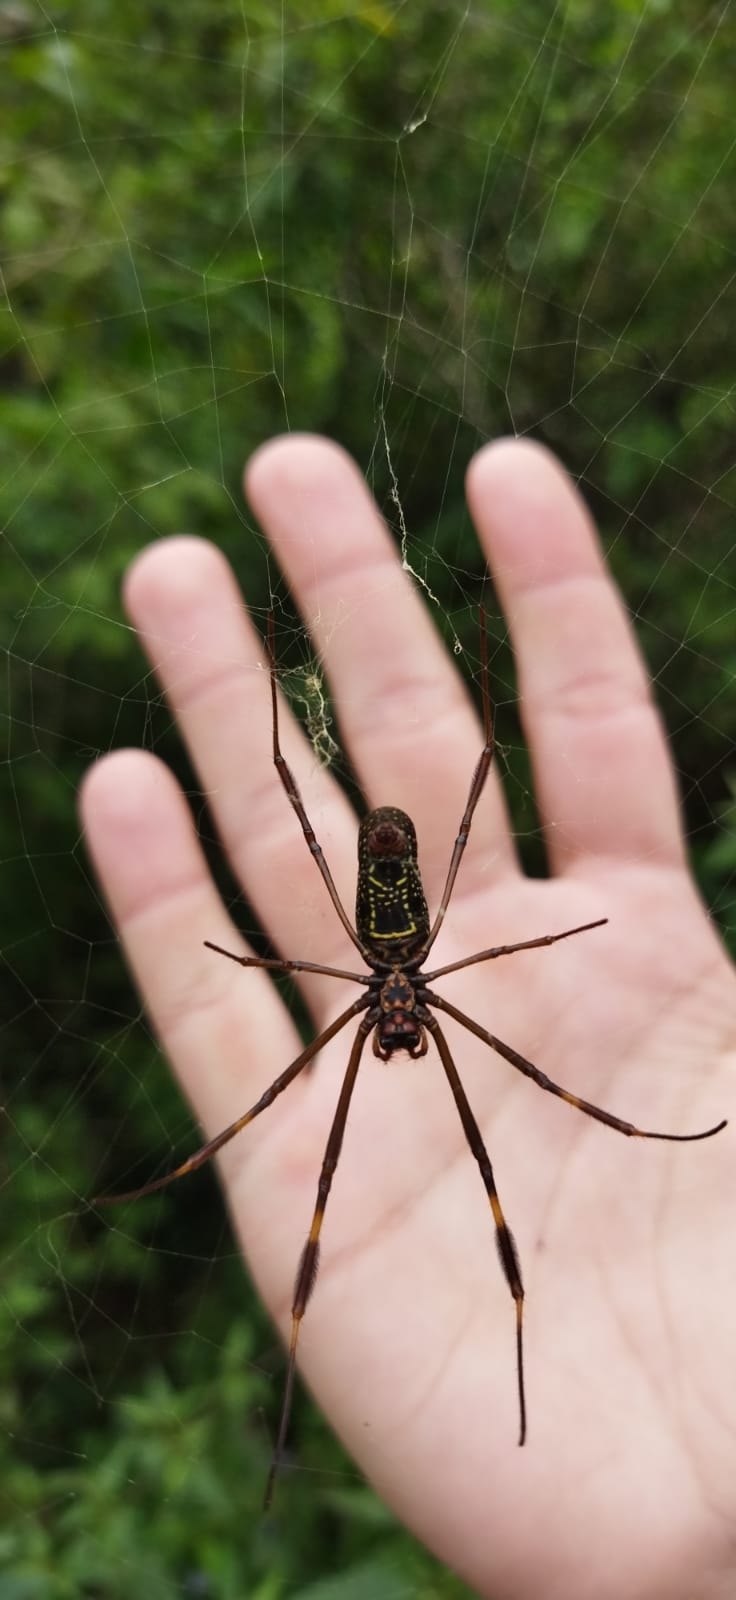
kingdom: Animalia
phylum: Arthropoda
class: Arachnida
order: Araneae
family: Araneidae
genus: Trichonephila
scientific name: Trichonephila clavipes
